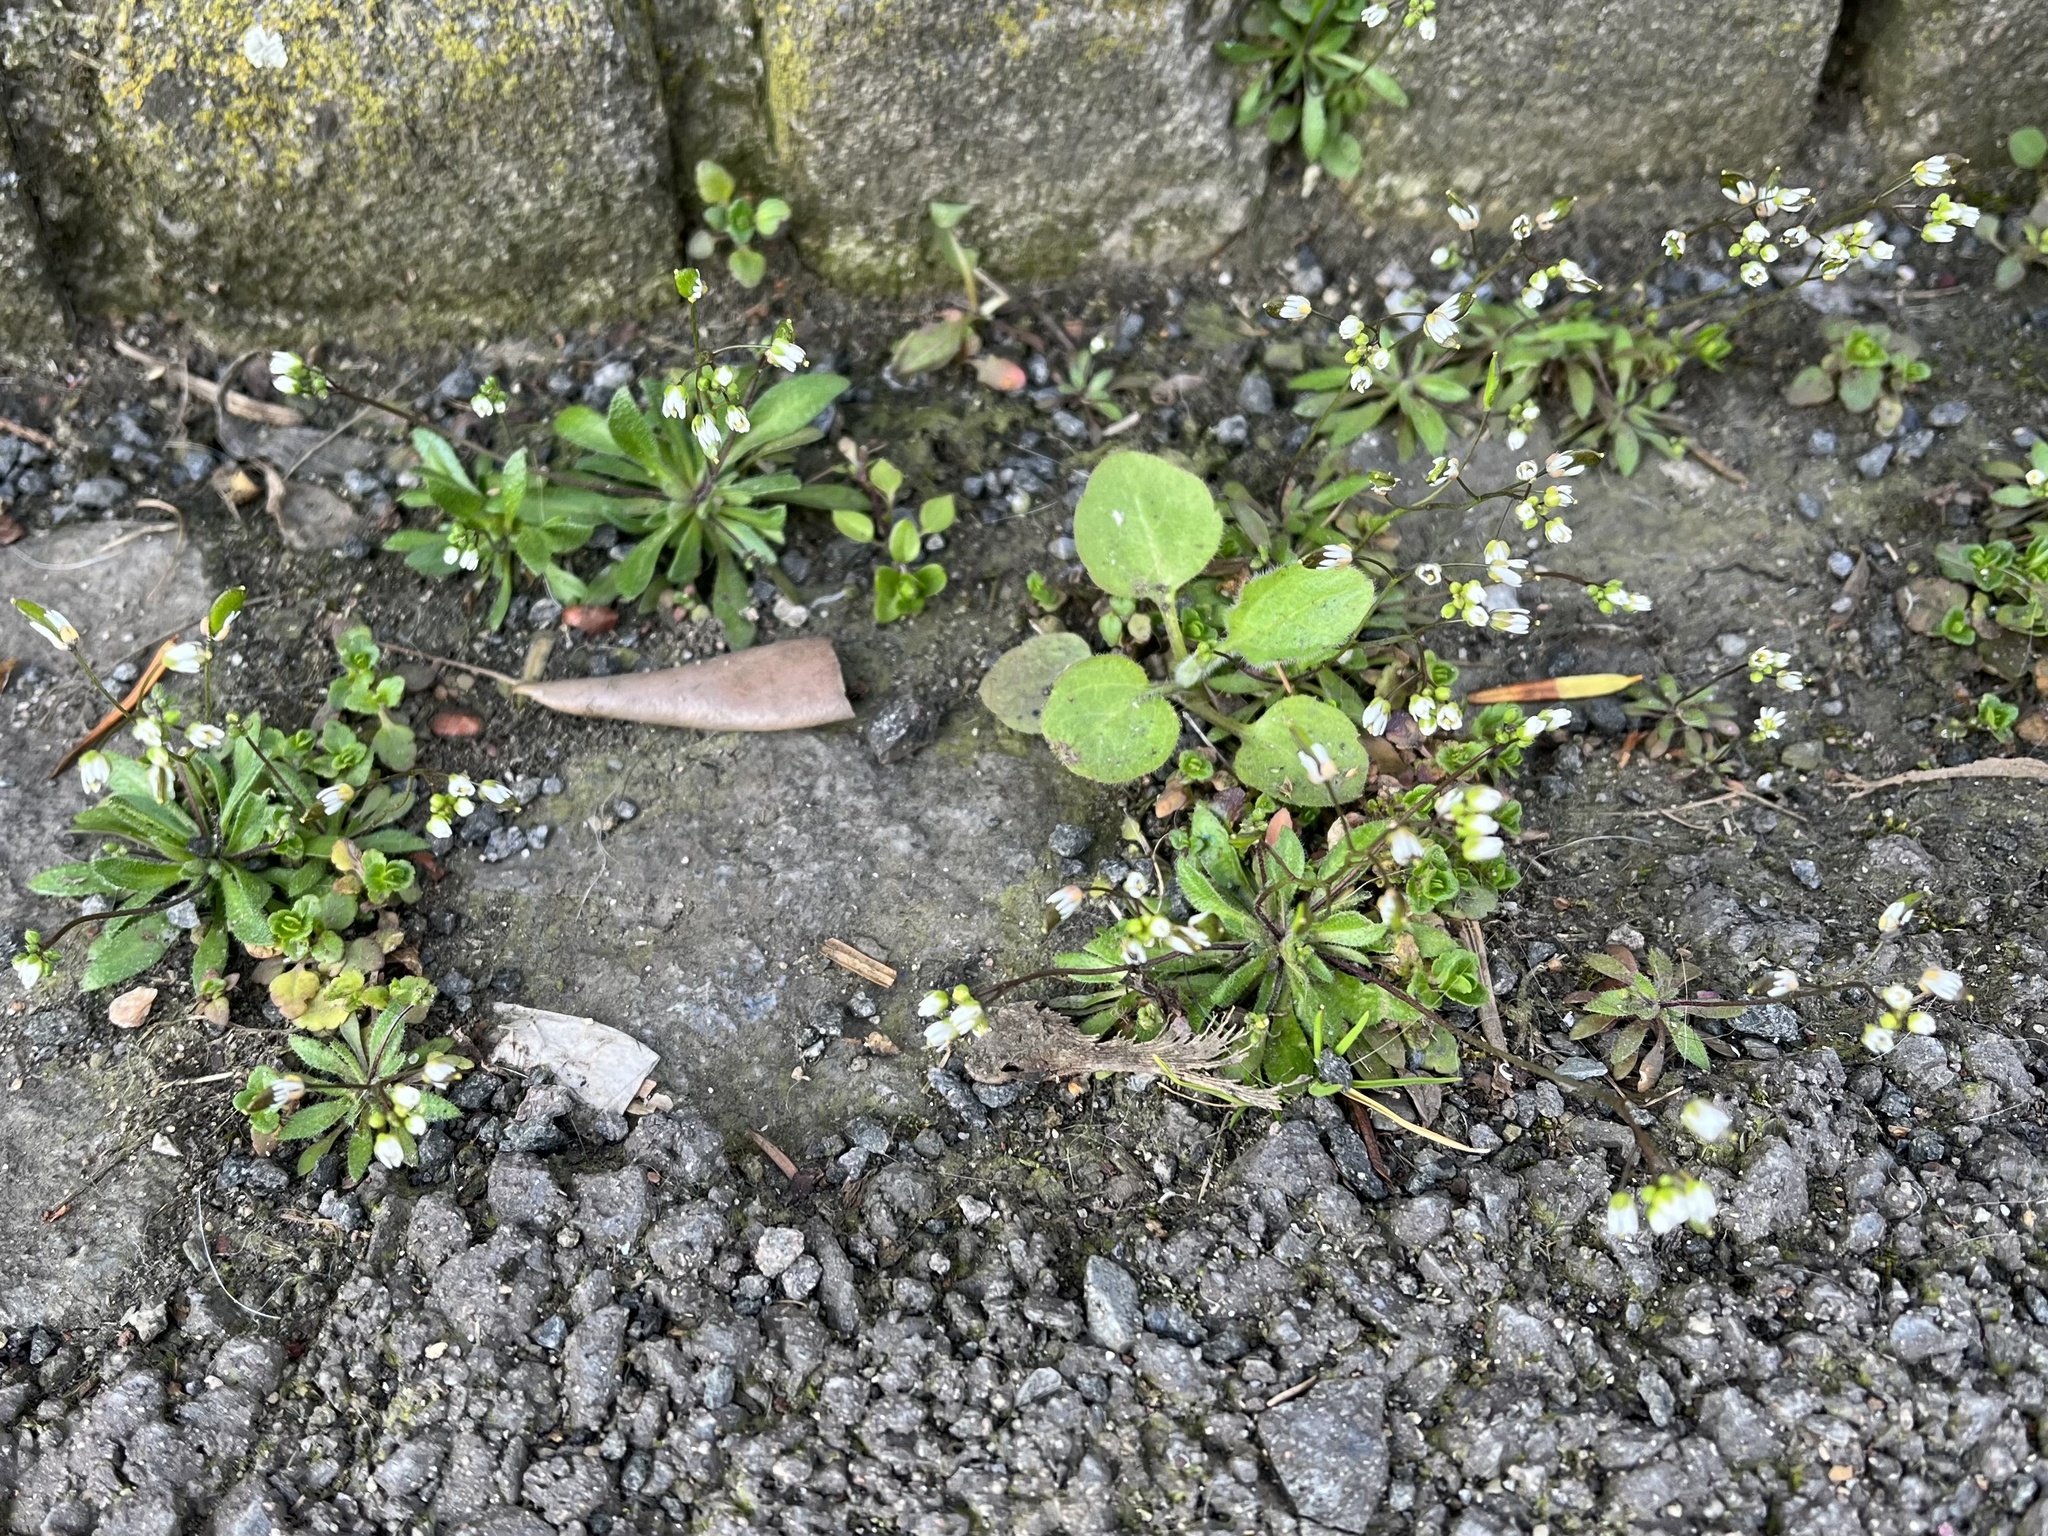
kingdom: Plantae
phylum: Tracheophyta
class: Magnoliopsida
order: Brassicales
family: Brassicaceae
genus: Draba
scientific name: Draba verna
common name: Spring draba
